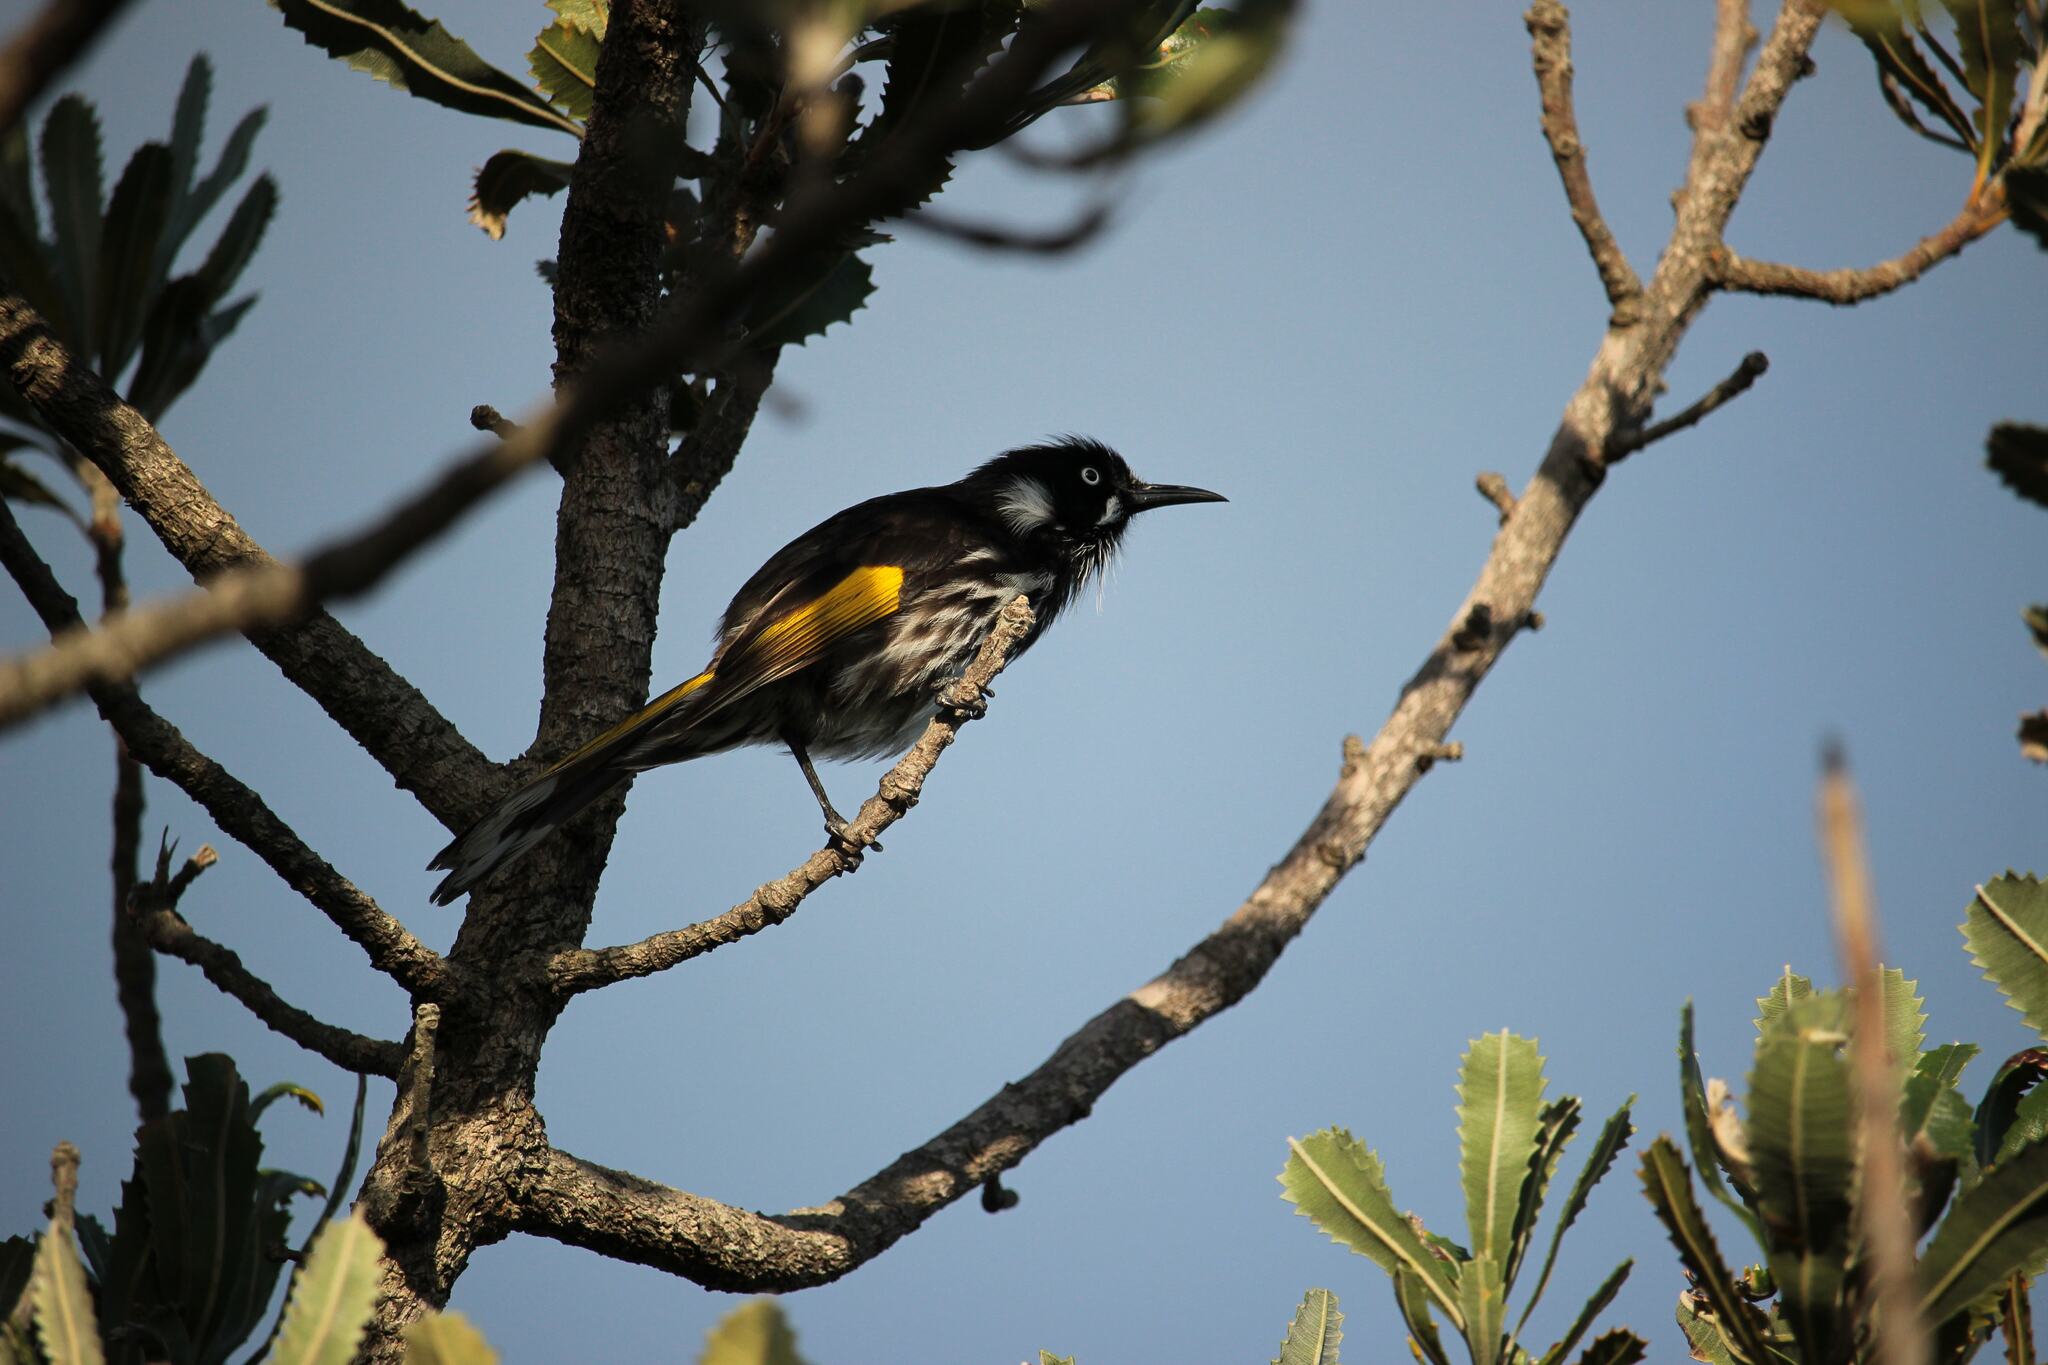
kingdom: Animalia
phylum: Chordata
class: Aves
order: Passeriformes
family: Meliphagidae
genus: Phylidonyris
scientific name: Phylidonyris novaehollandiae
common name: New holland honeyeater
